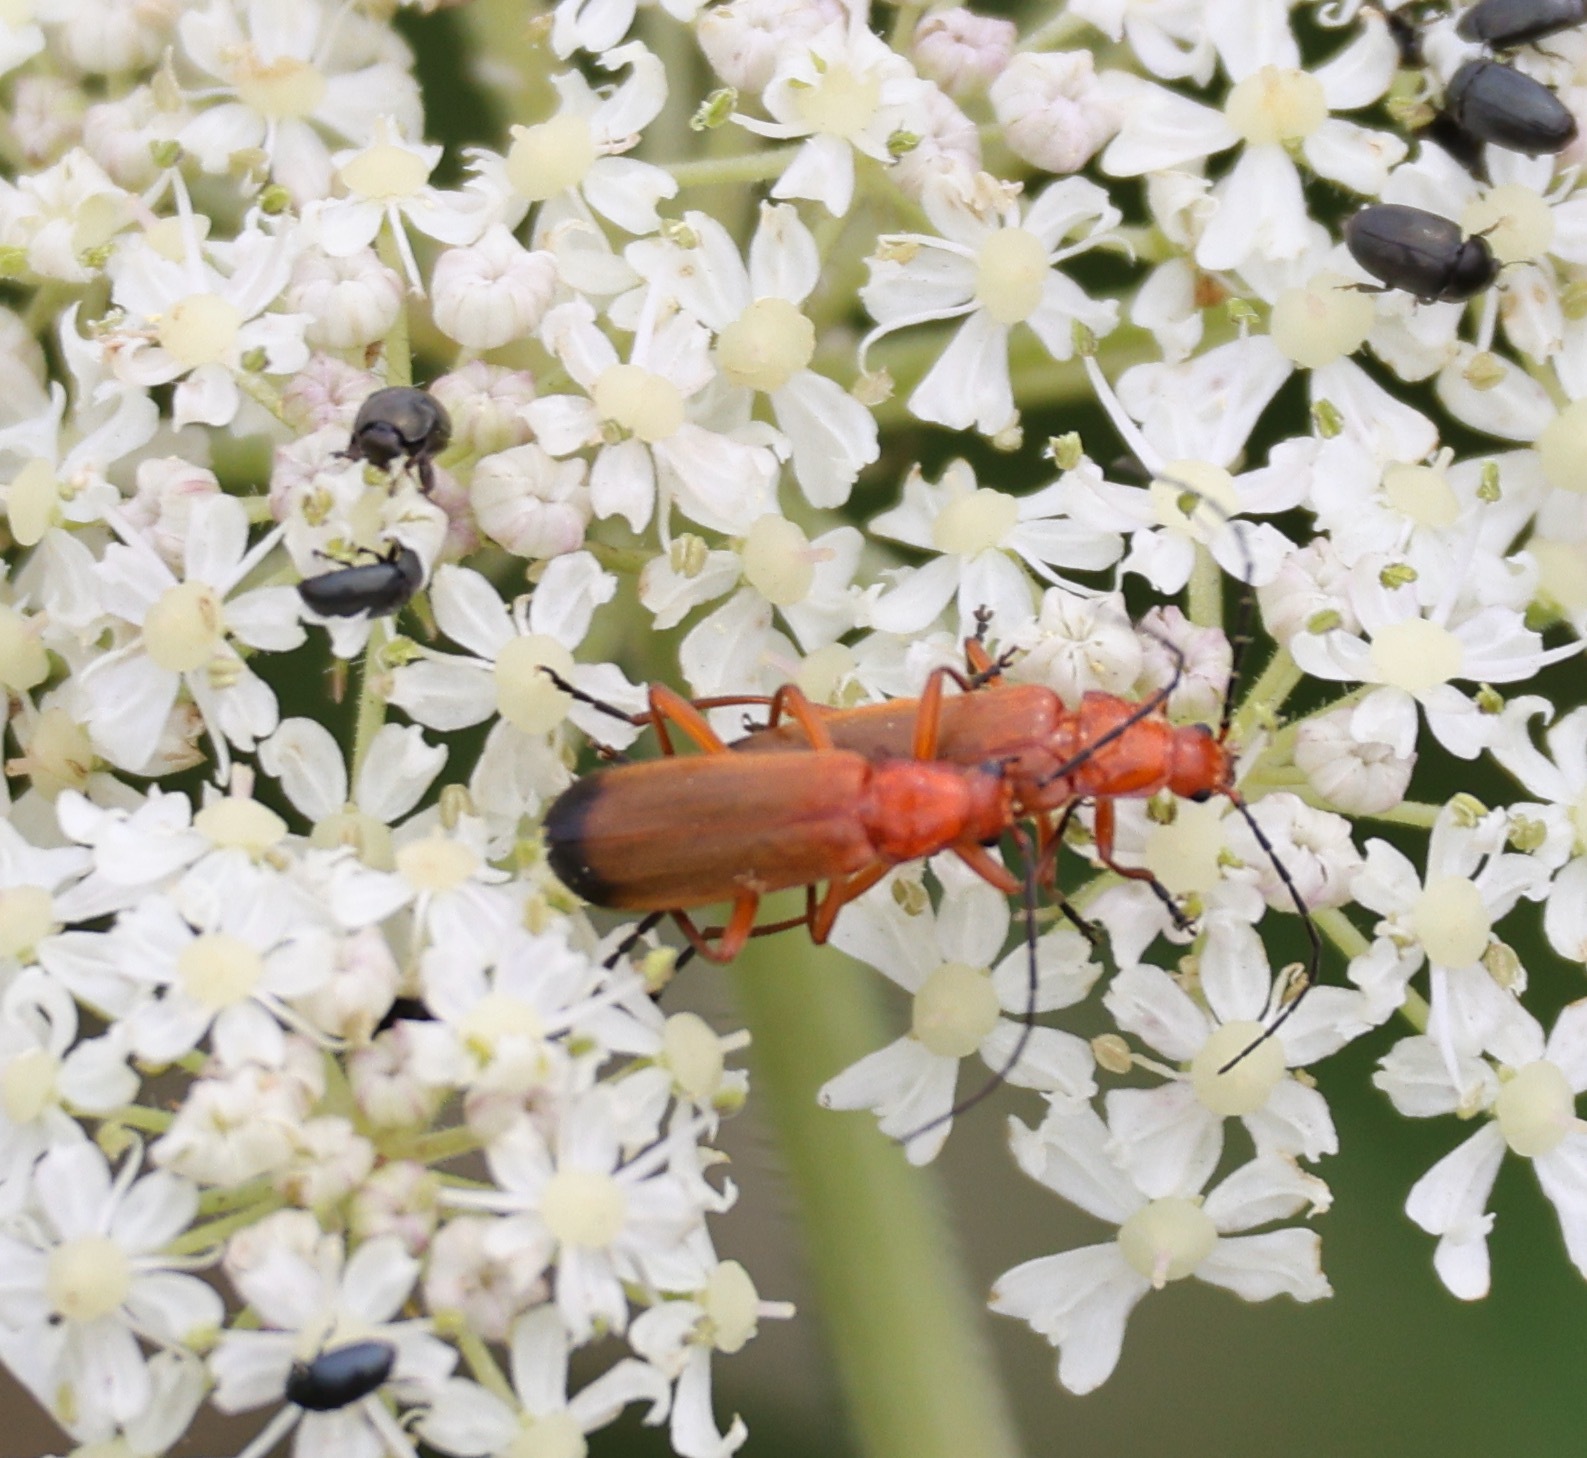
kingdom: Animalia
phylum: Arthropoda
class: Insecta
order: Coleoptera
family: Cantharidae
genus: Rhagonycha
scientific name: Rhagonycha fulva
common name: Common red soldier beetle
